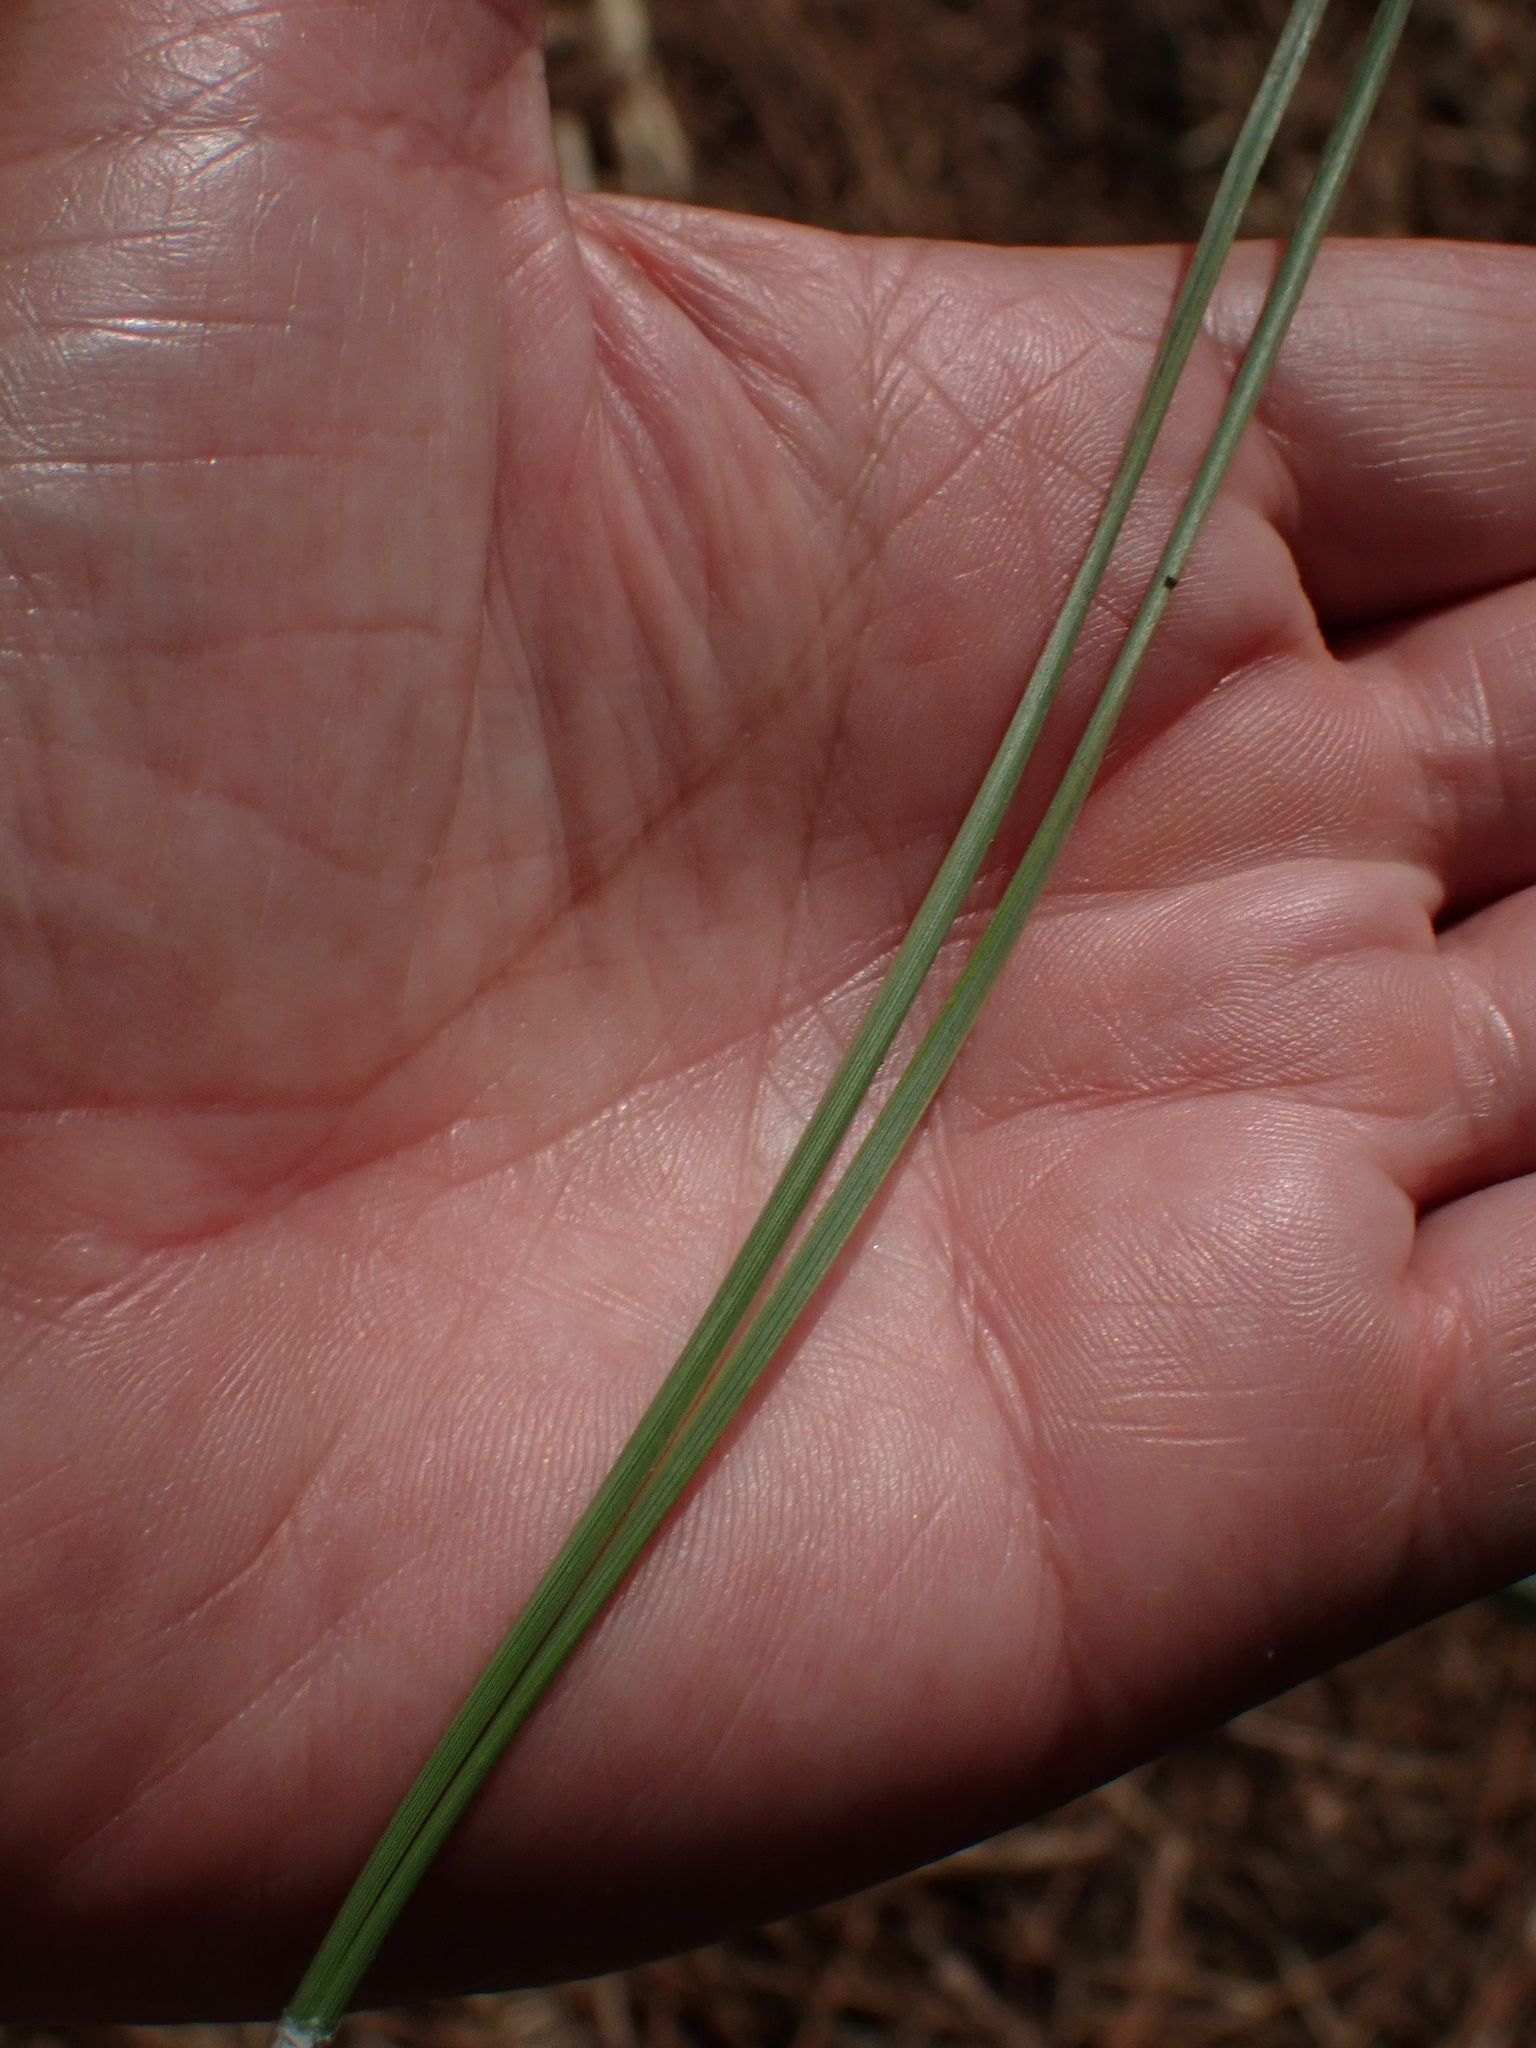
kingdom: Plantae
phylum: Tracheophyta
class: Pinopsida
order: Pinales
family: Pinaceae
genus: Pinus
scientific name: Pinus pinaster
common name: Maritime pine
